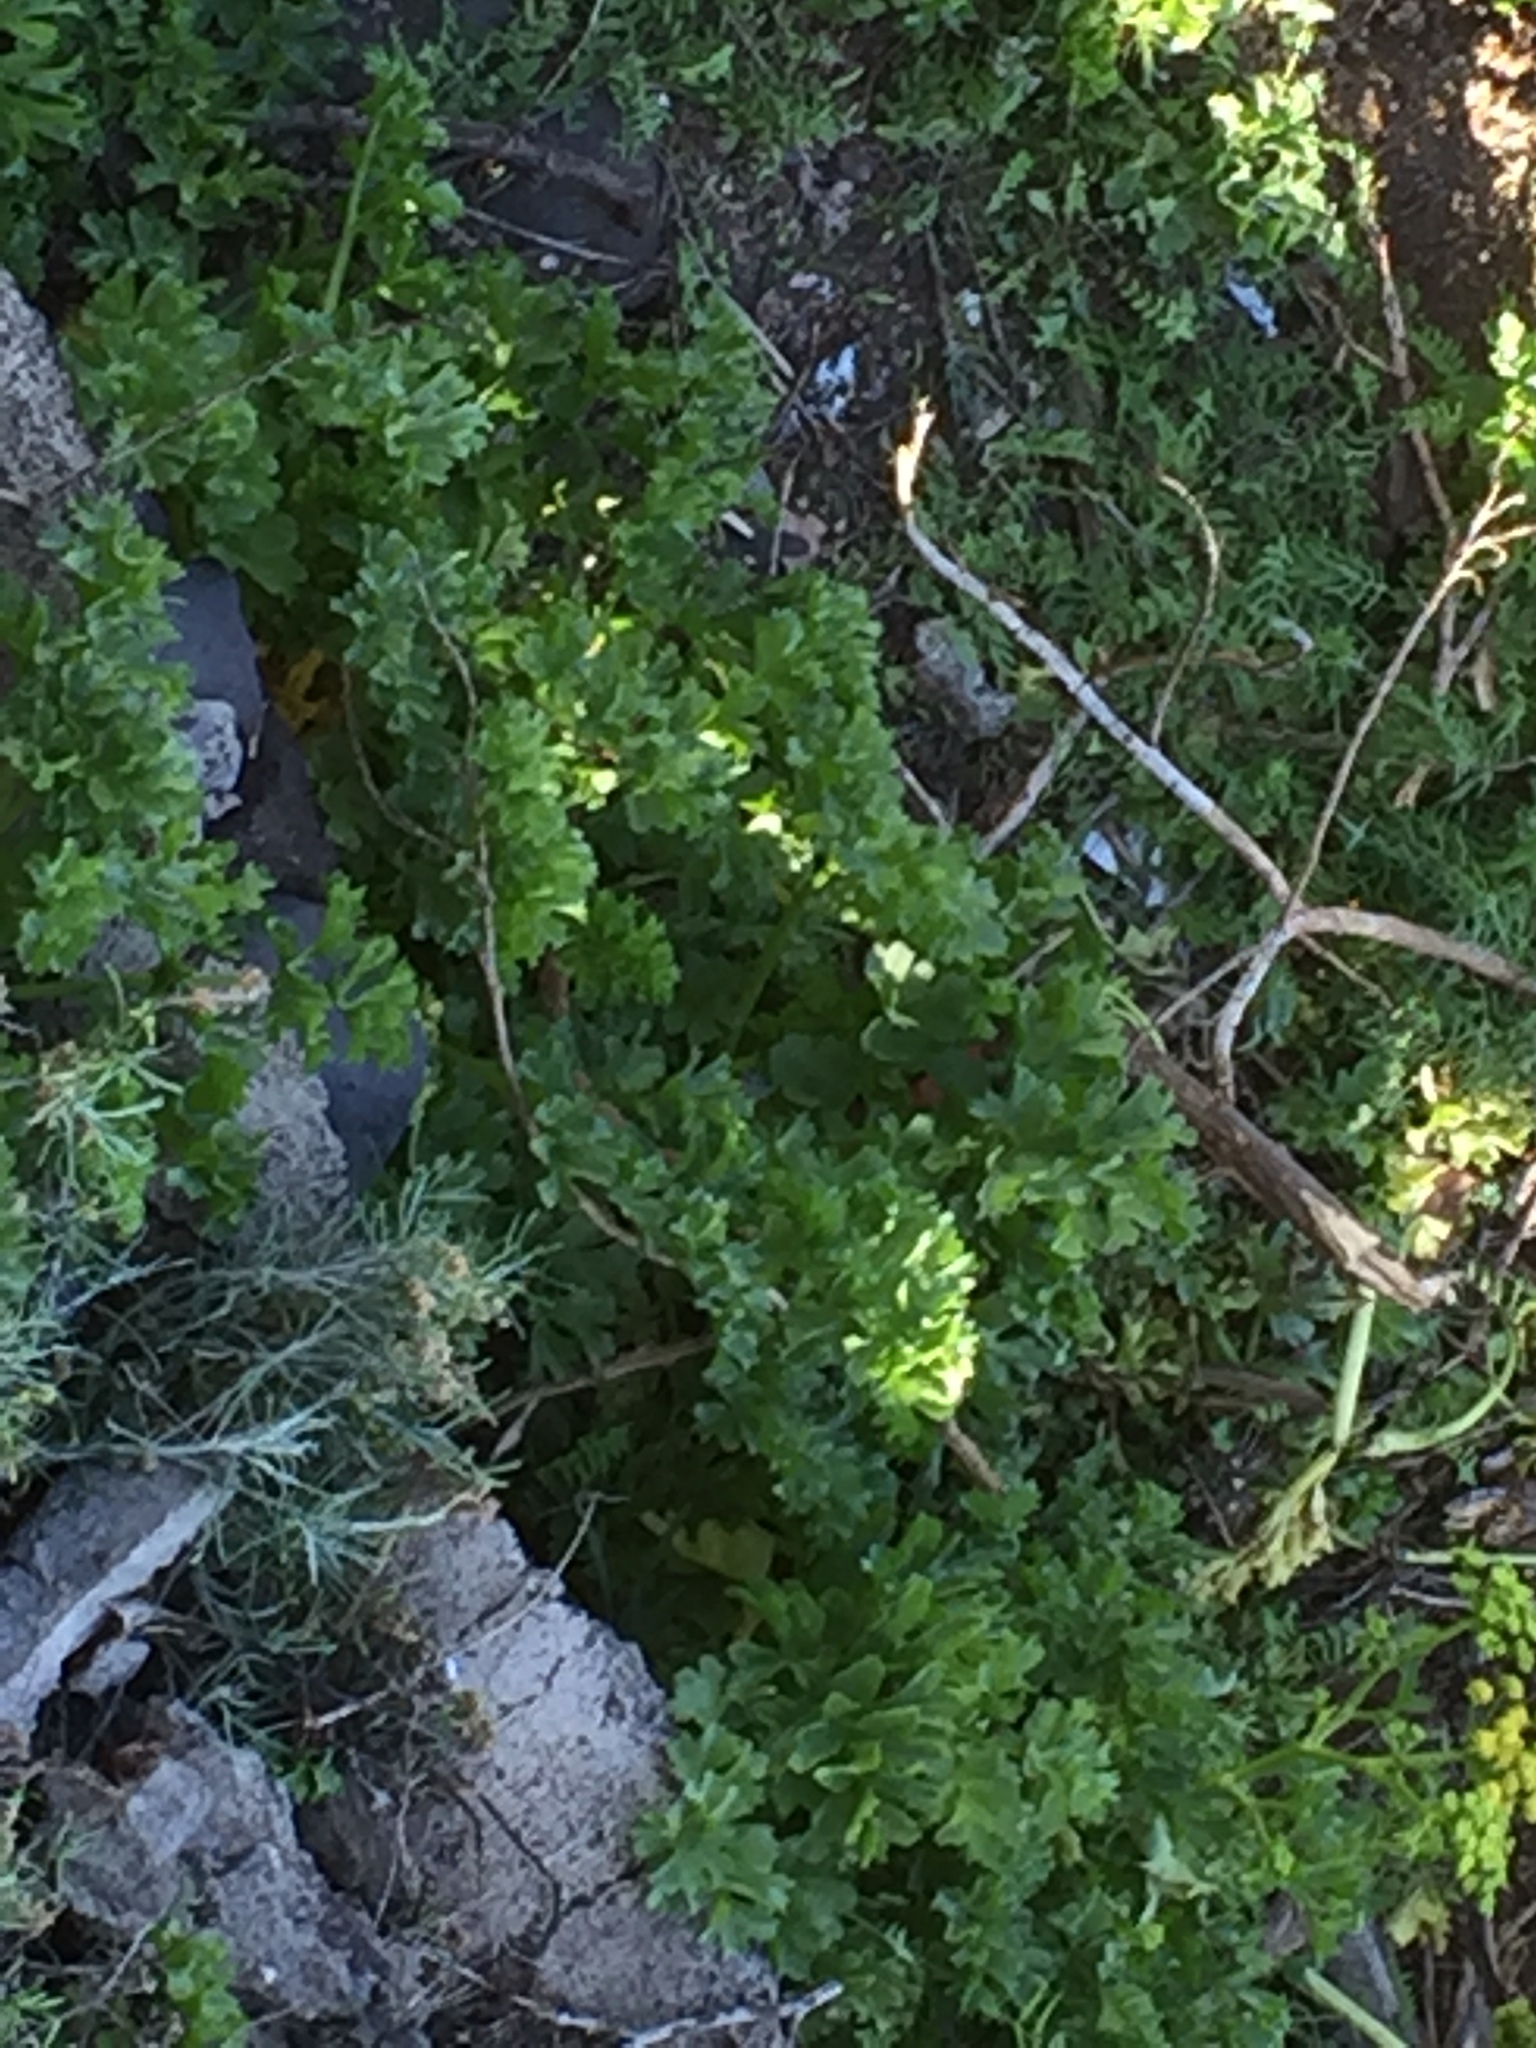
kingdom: Plantae
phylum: Tracheophyta
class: Magnoliopsida
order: Apiales
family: Apiaceae
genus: Astydamia
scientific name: Astydamia latifolia
